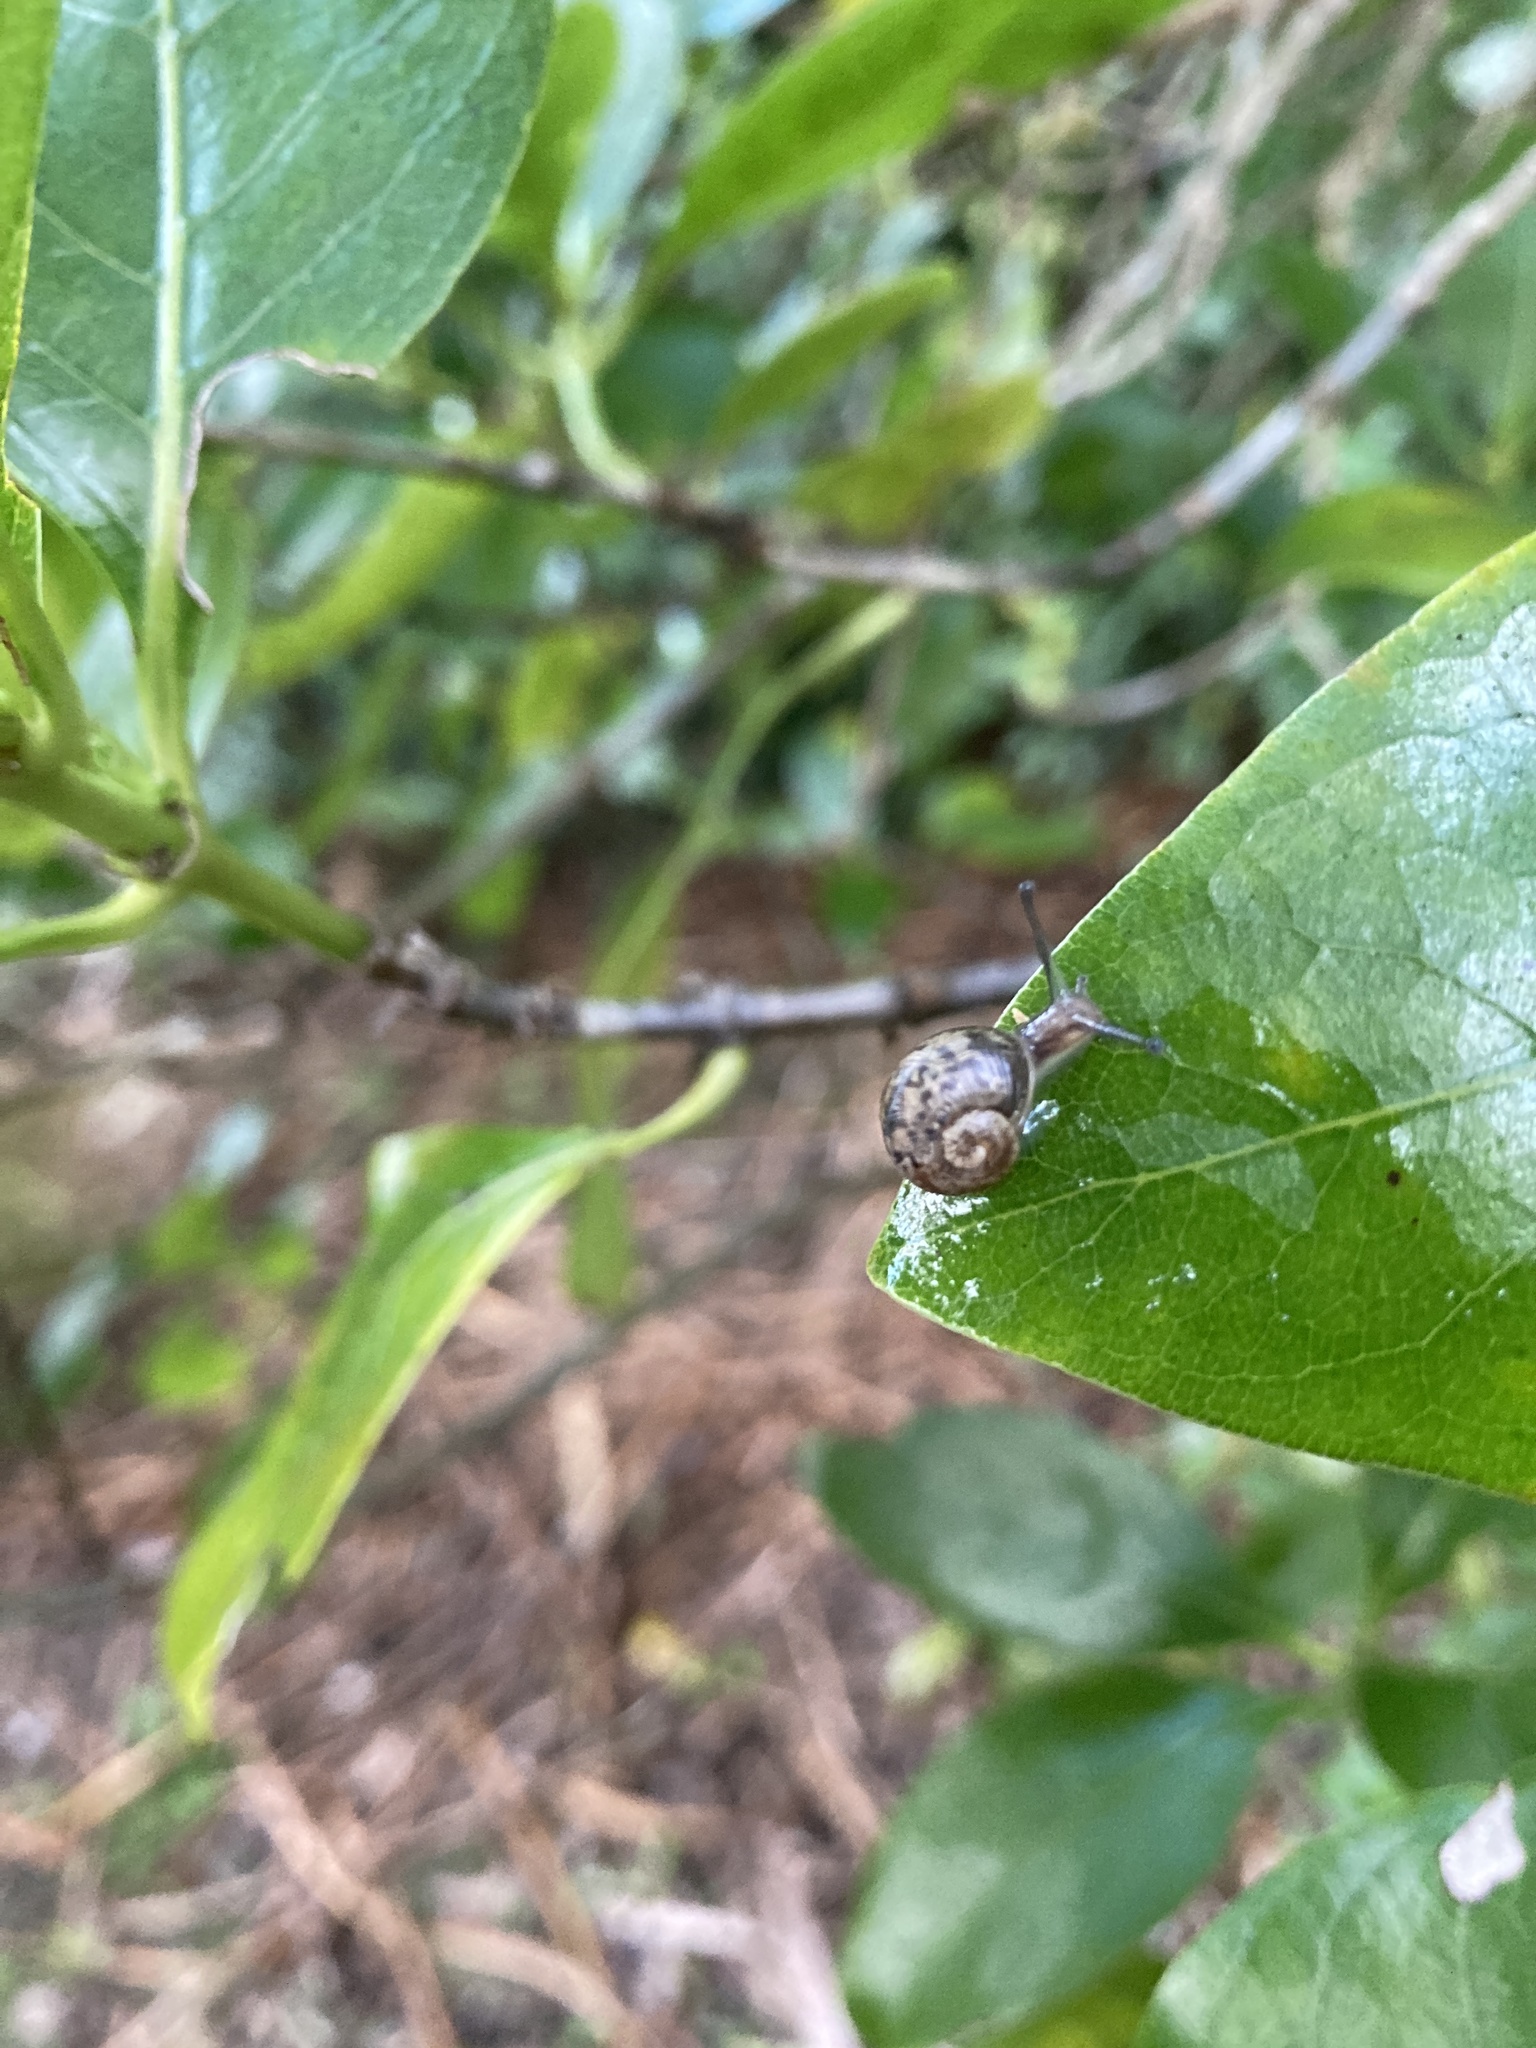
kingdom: Animalia
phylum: Mollusca
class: Gastropoda
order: Stylommatophora
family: Helicidae
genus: Cornu
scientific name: Cornu aspersum
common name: Brown garden snail
